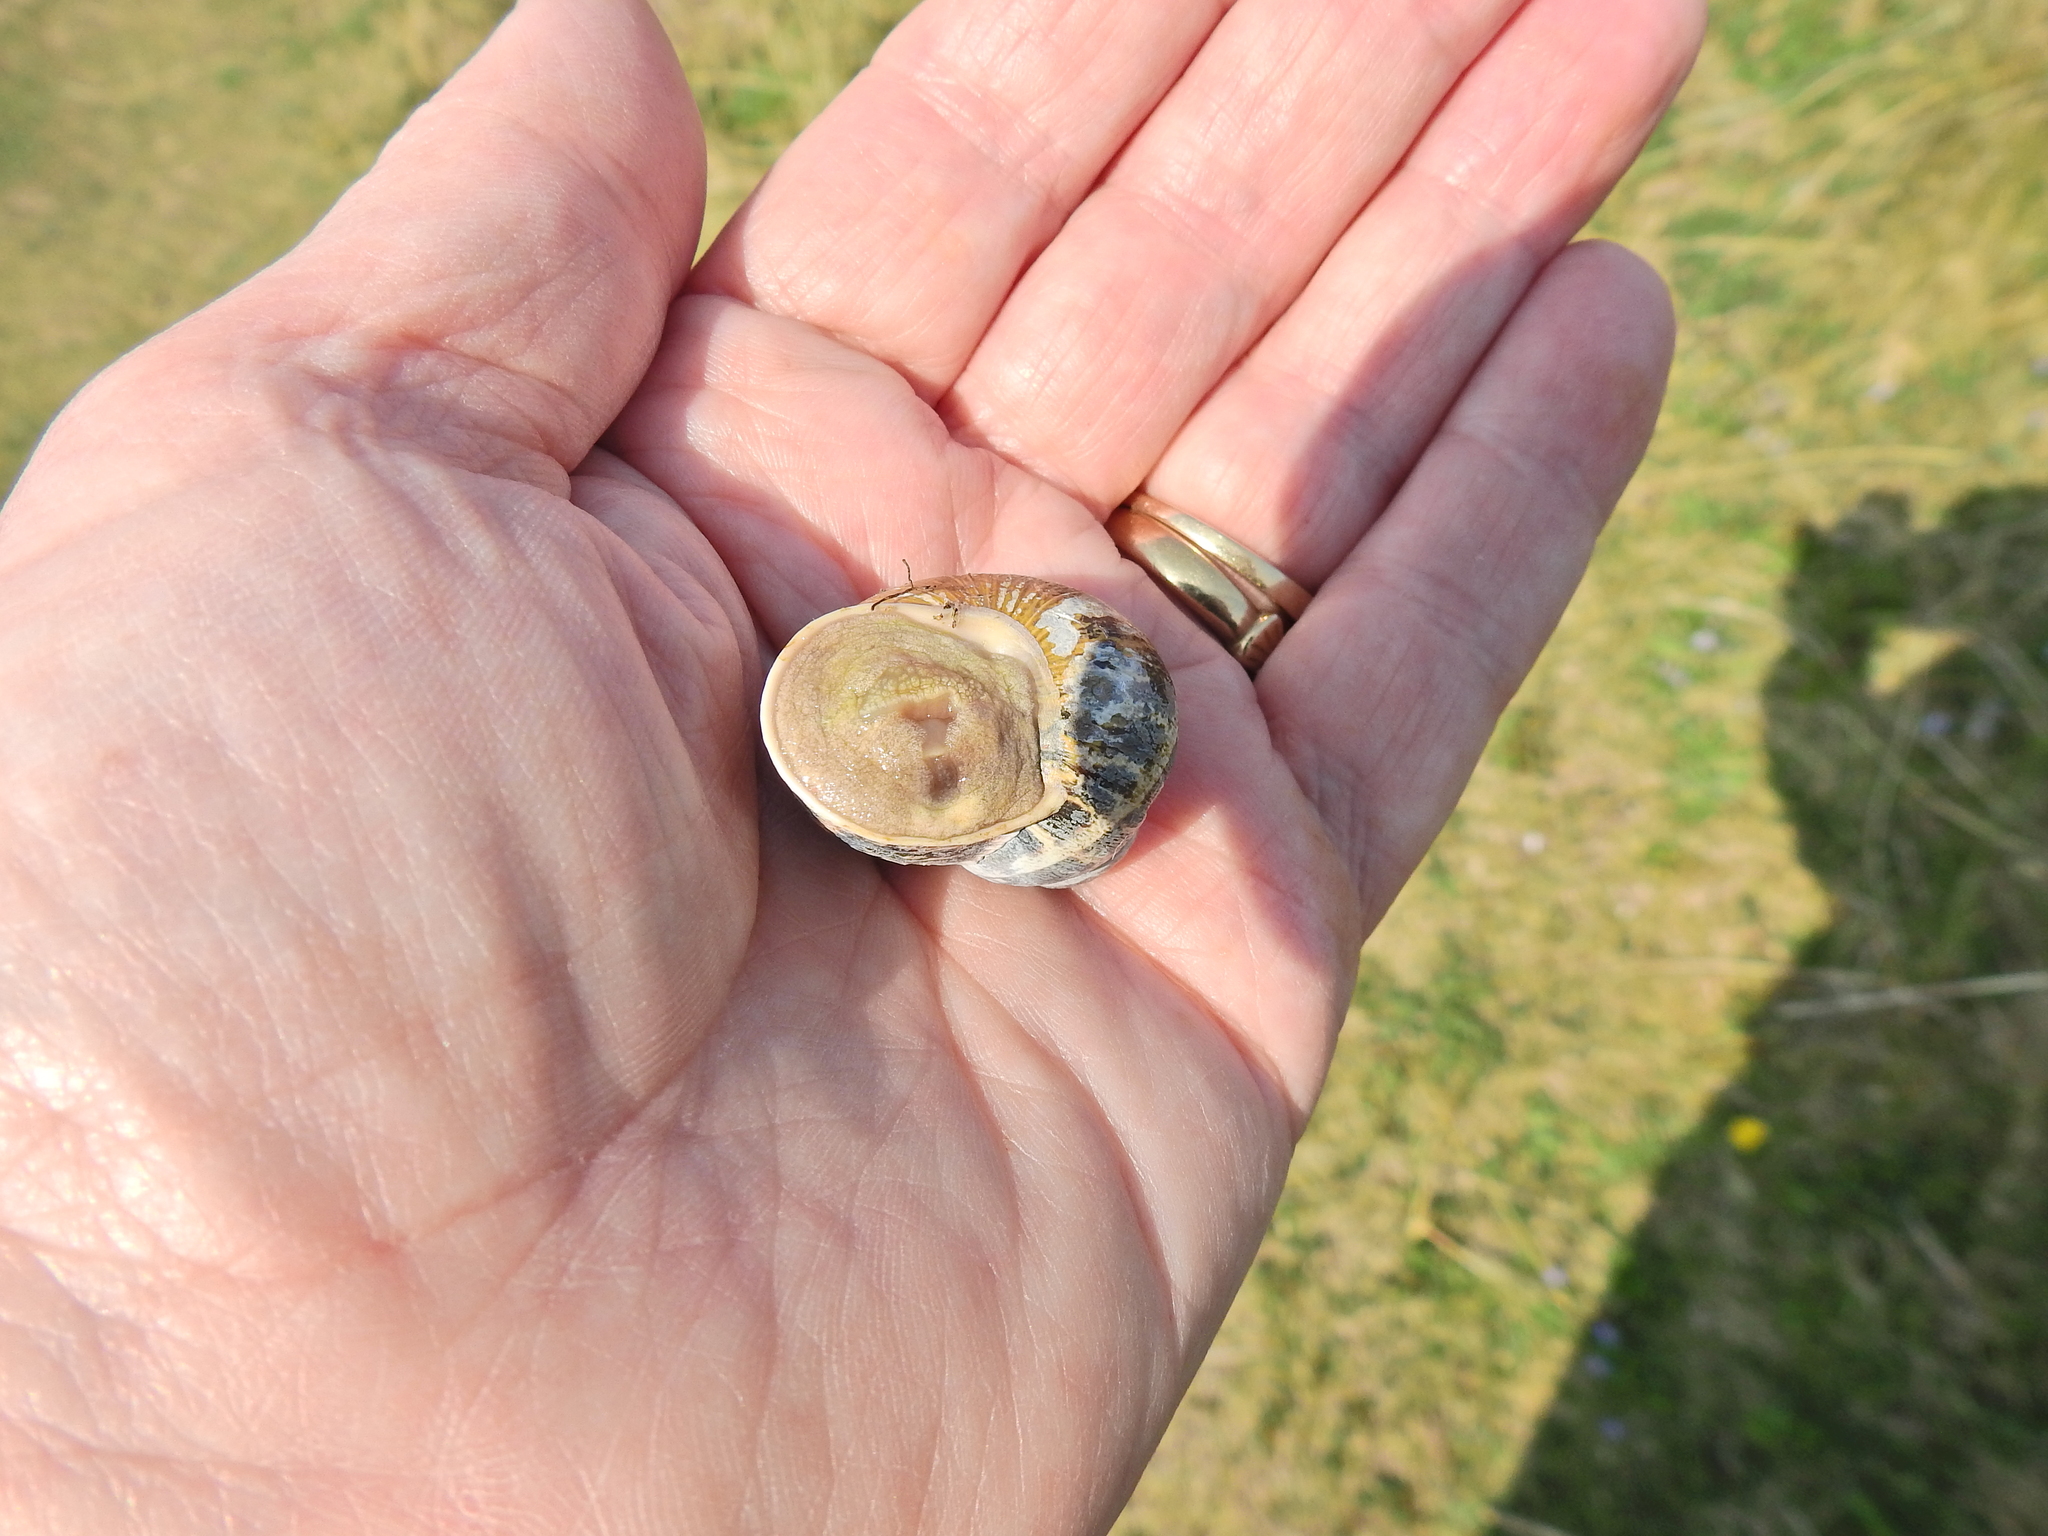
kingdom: Animalia
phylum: Mollusca
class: Gastropoda
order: Stylommatophora
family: Helicidae
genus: Cornu
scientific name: Cornu aspersum
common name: Brown garden snail
